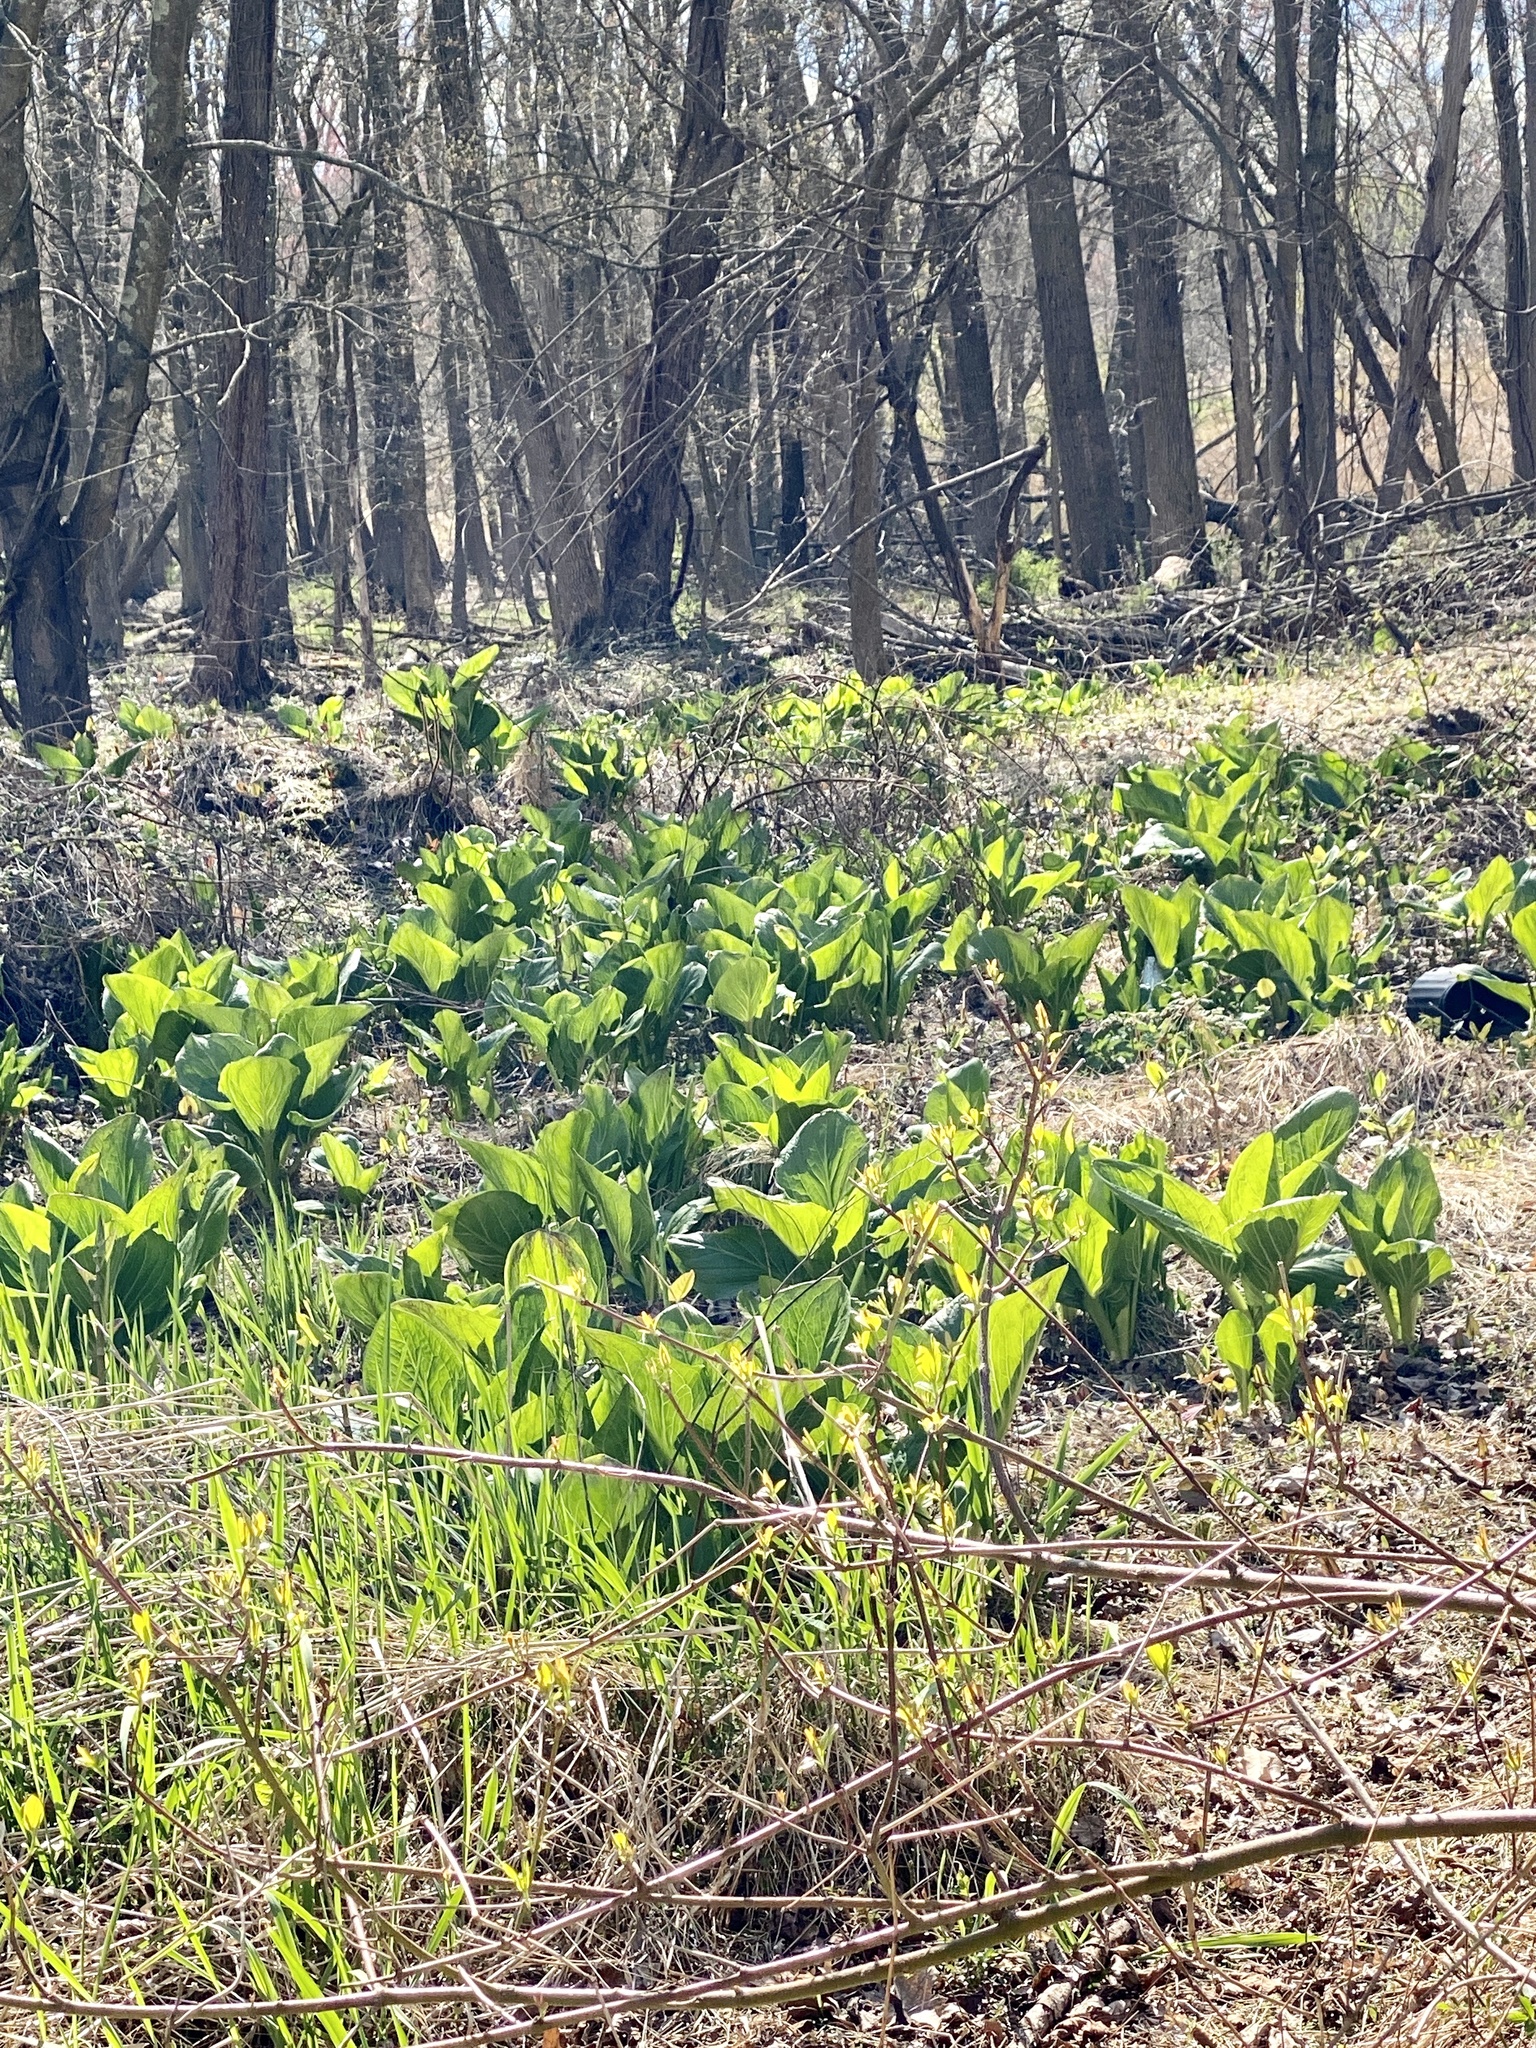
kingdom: Plantae
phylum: Tracheophyta
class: Liliopsida
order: Alismatales
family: Araceae
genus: Symplocarpus
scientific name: Symplocarpus foetidus
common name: Eastern skunk cabbage
